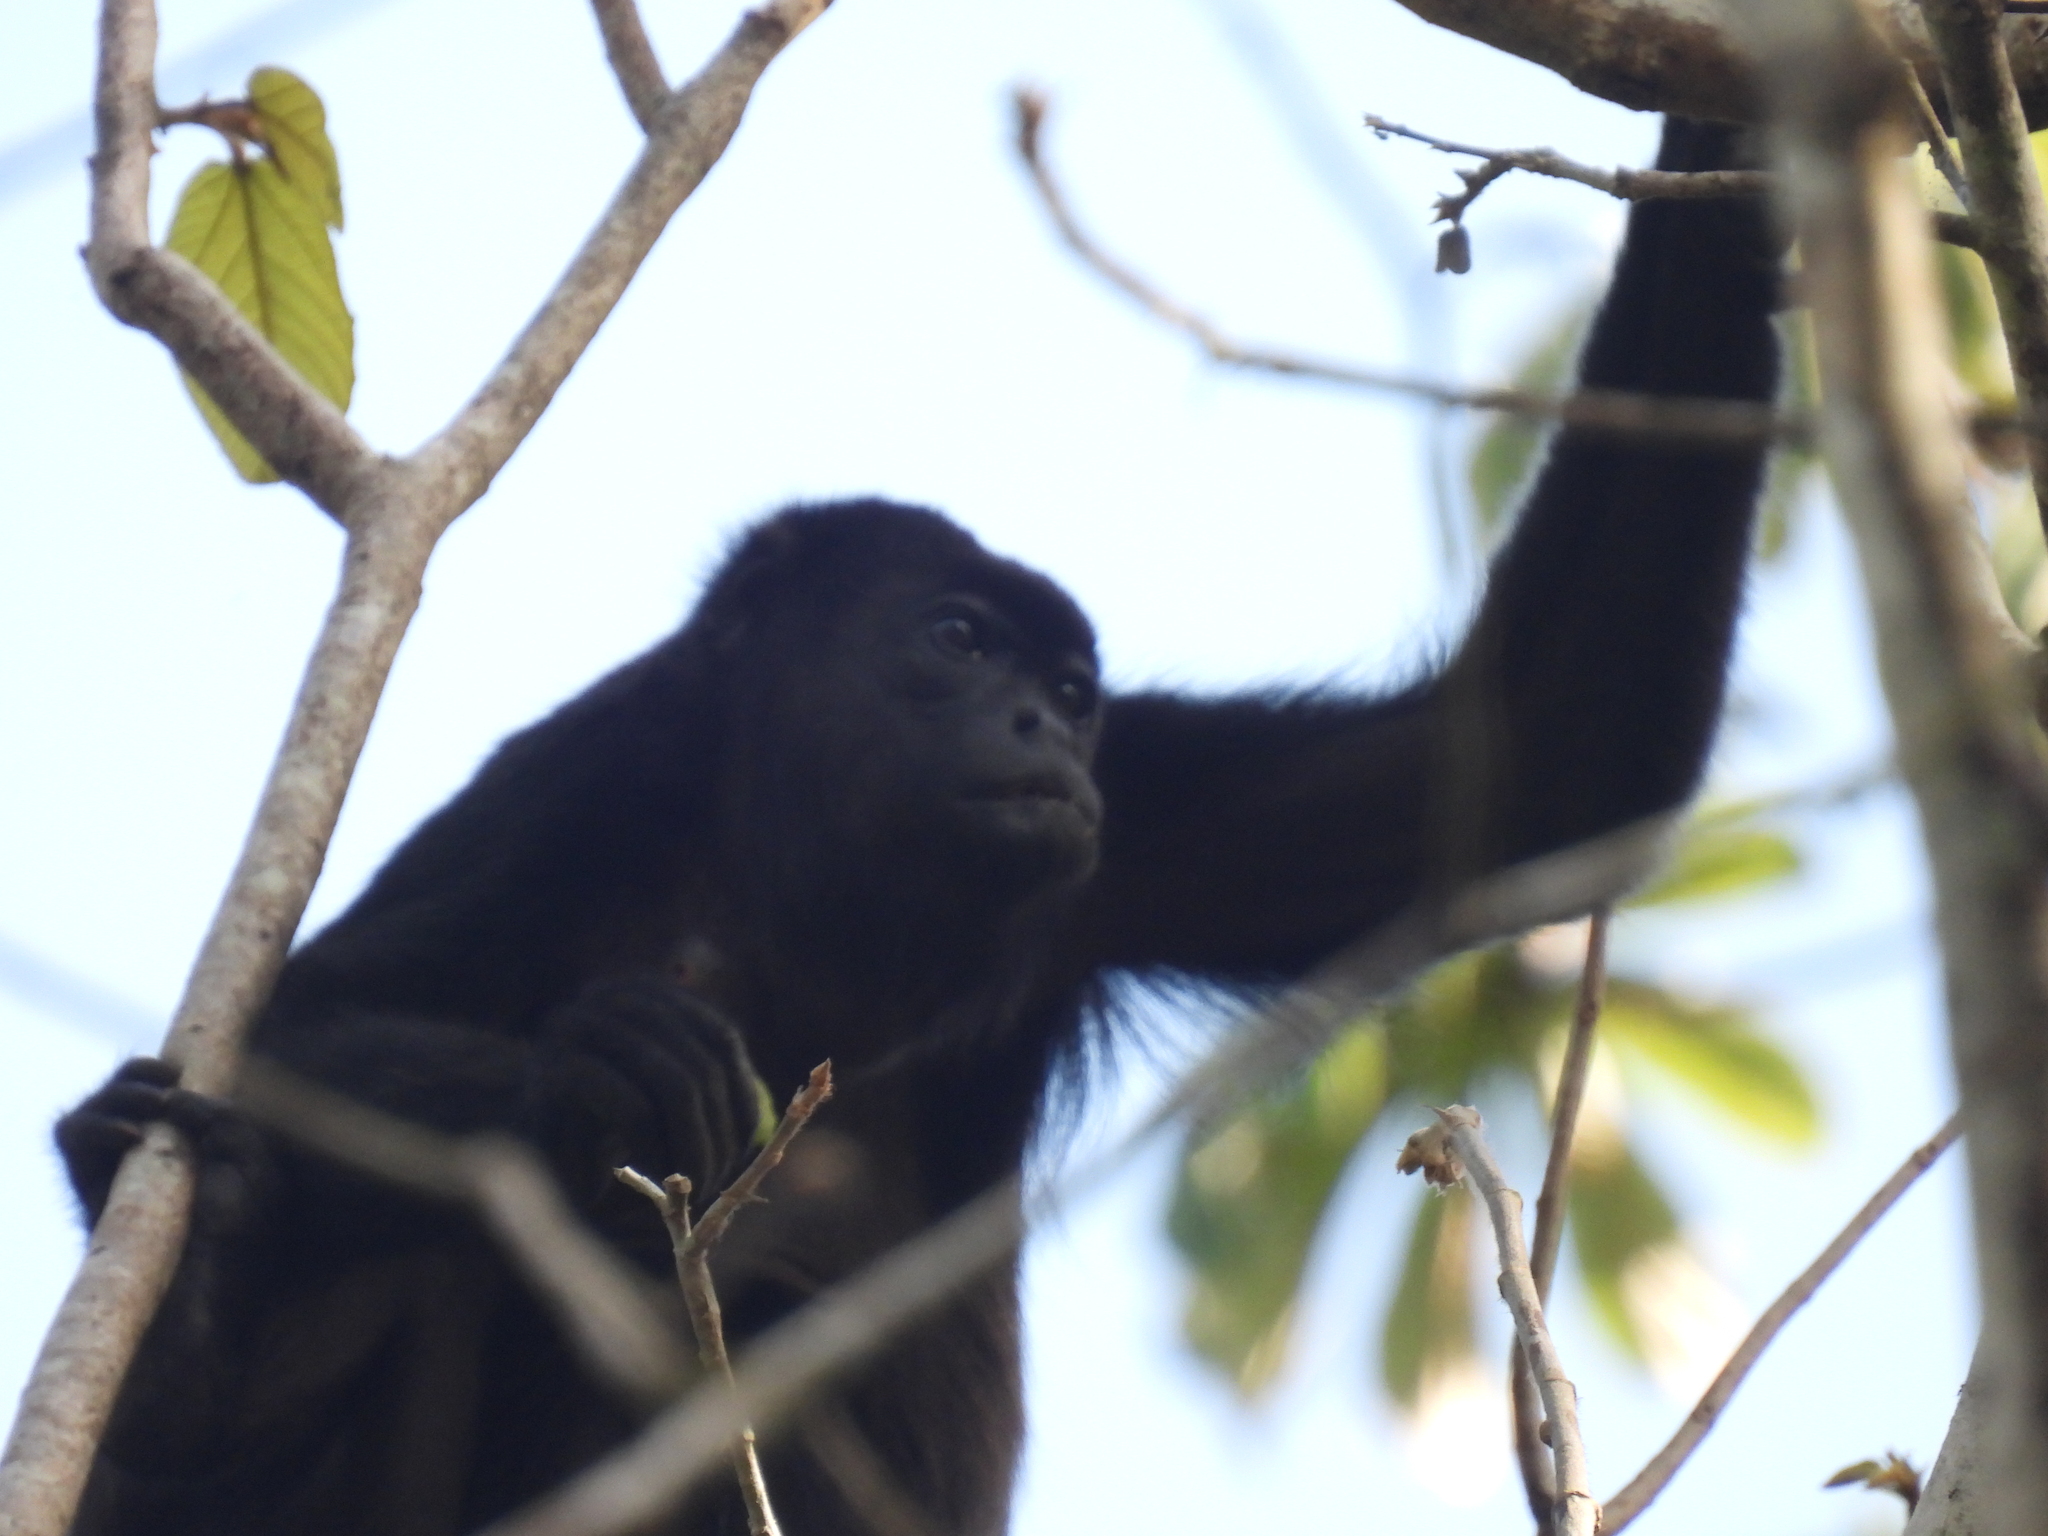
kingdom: Animalia
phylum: Chordata
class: Mammalia
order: Primates
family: Atelidae
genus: Alouatta
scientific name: Alouatta palliata
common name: Mantled howler
